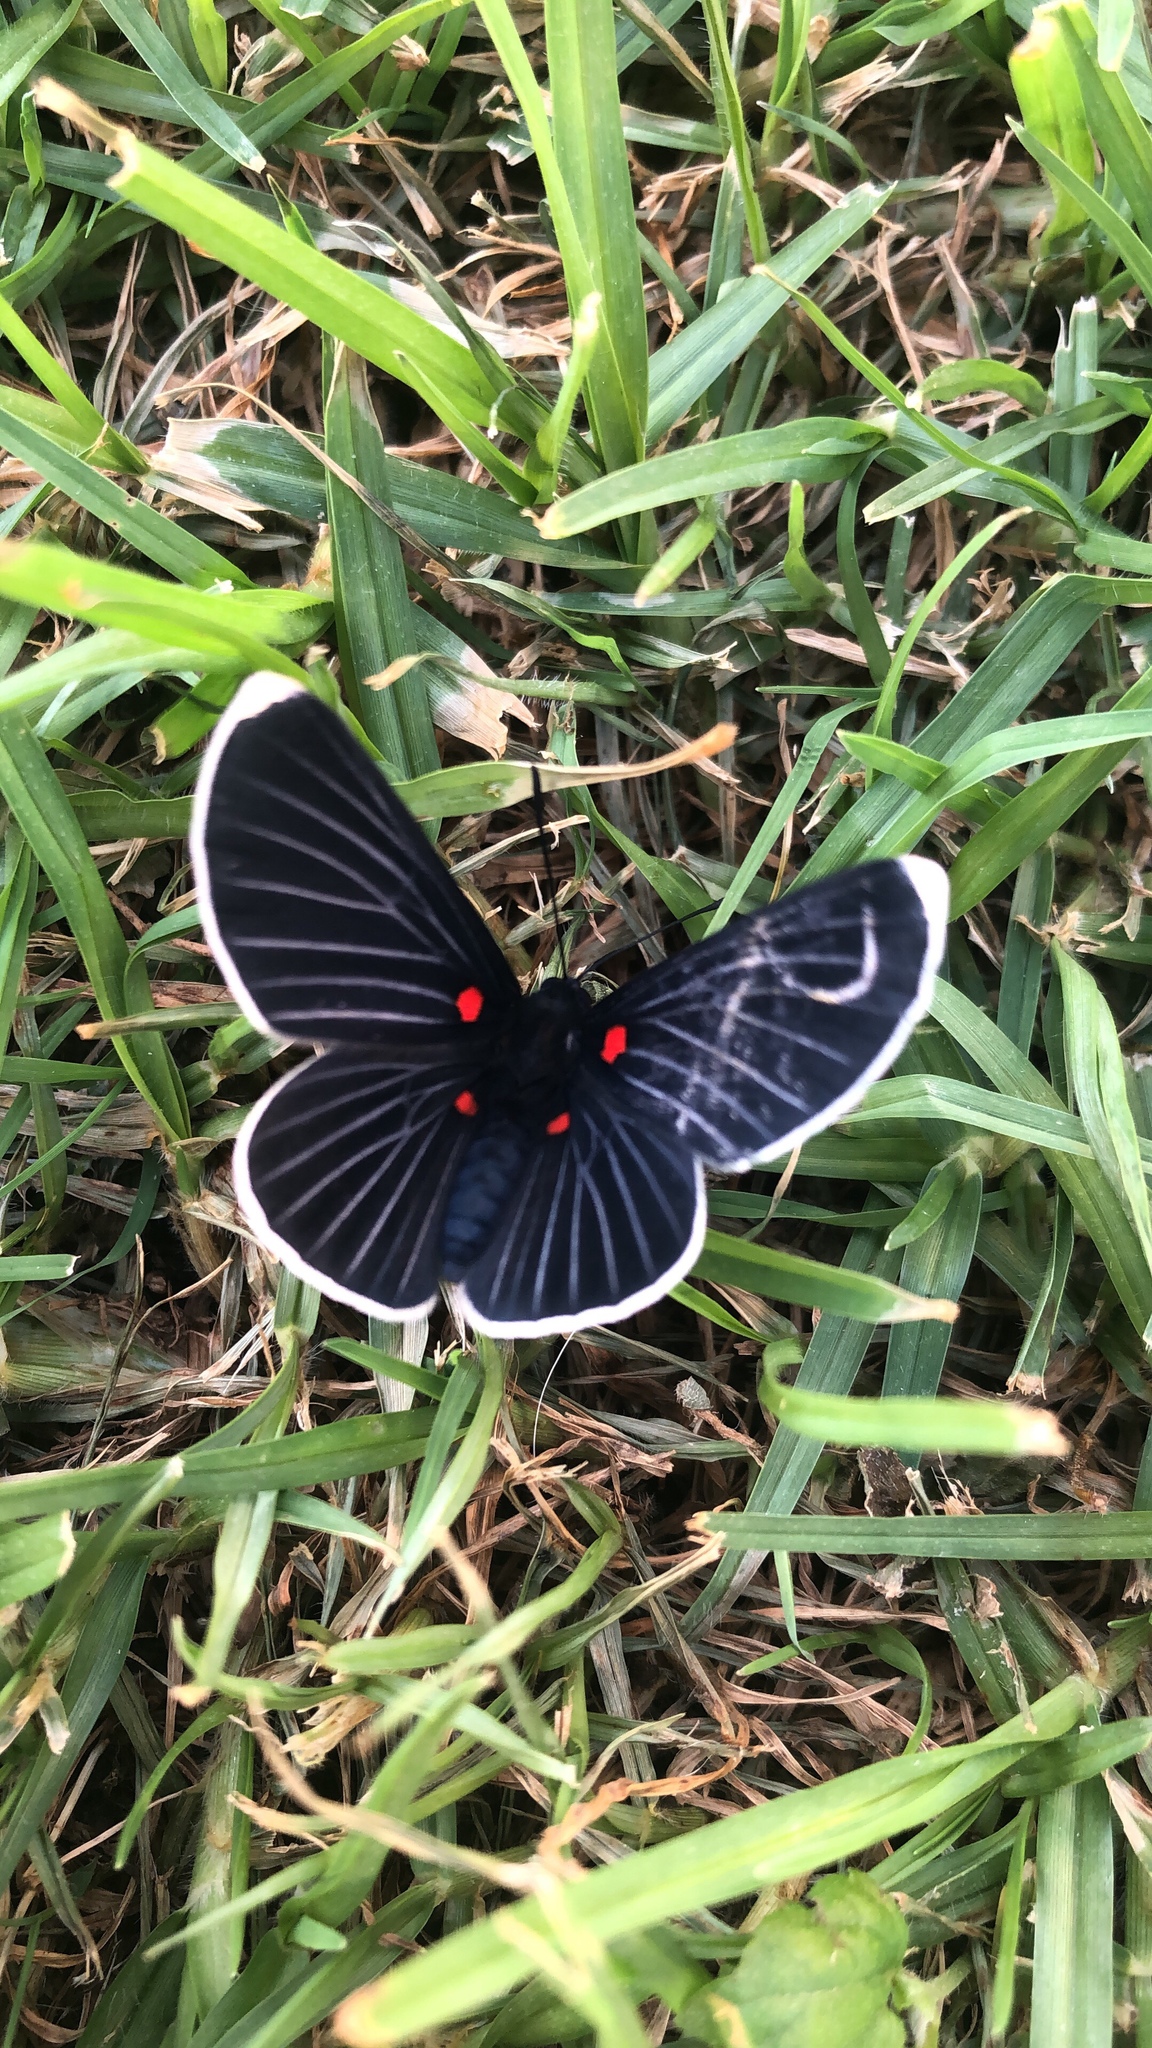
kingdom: Animalia
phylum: Arthropoda
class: Insecta
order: Lepidoptera
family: Lycaenidae
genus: Melanis
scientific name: Melanis
